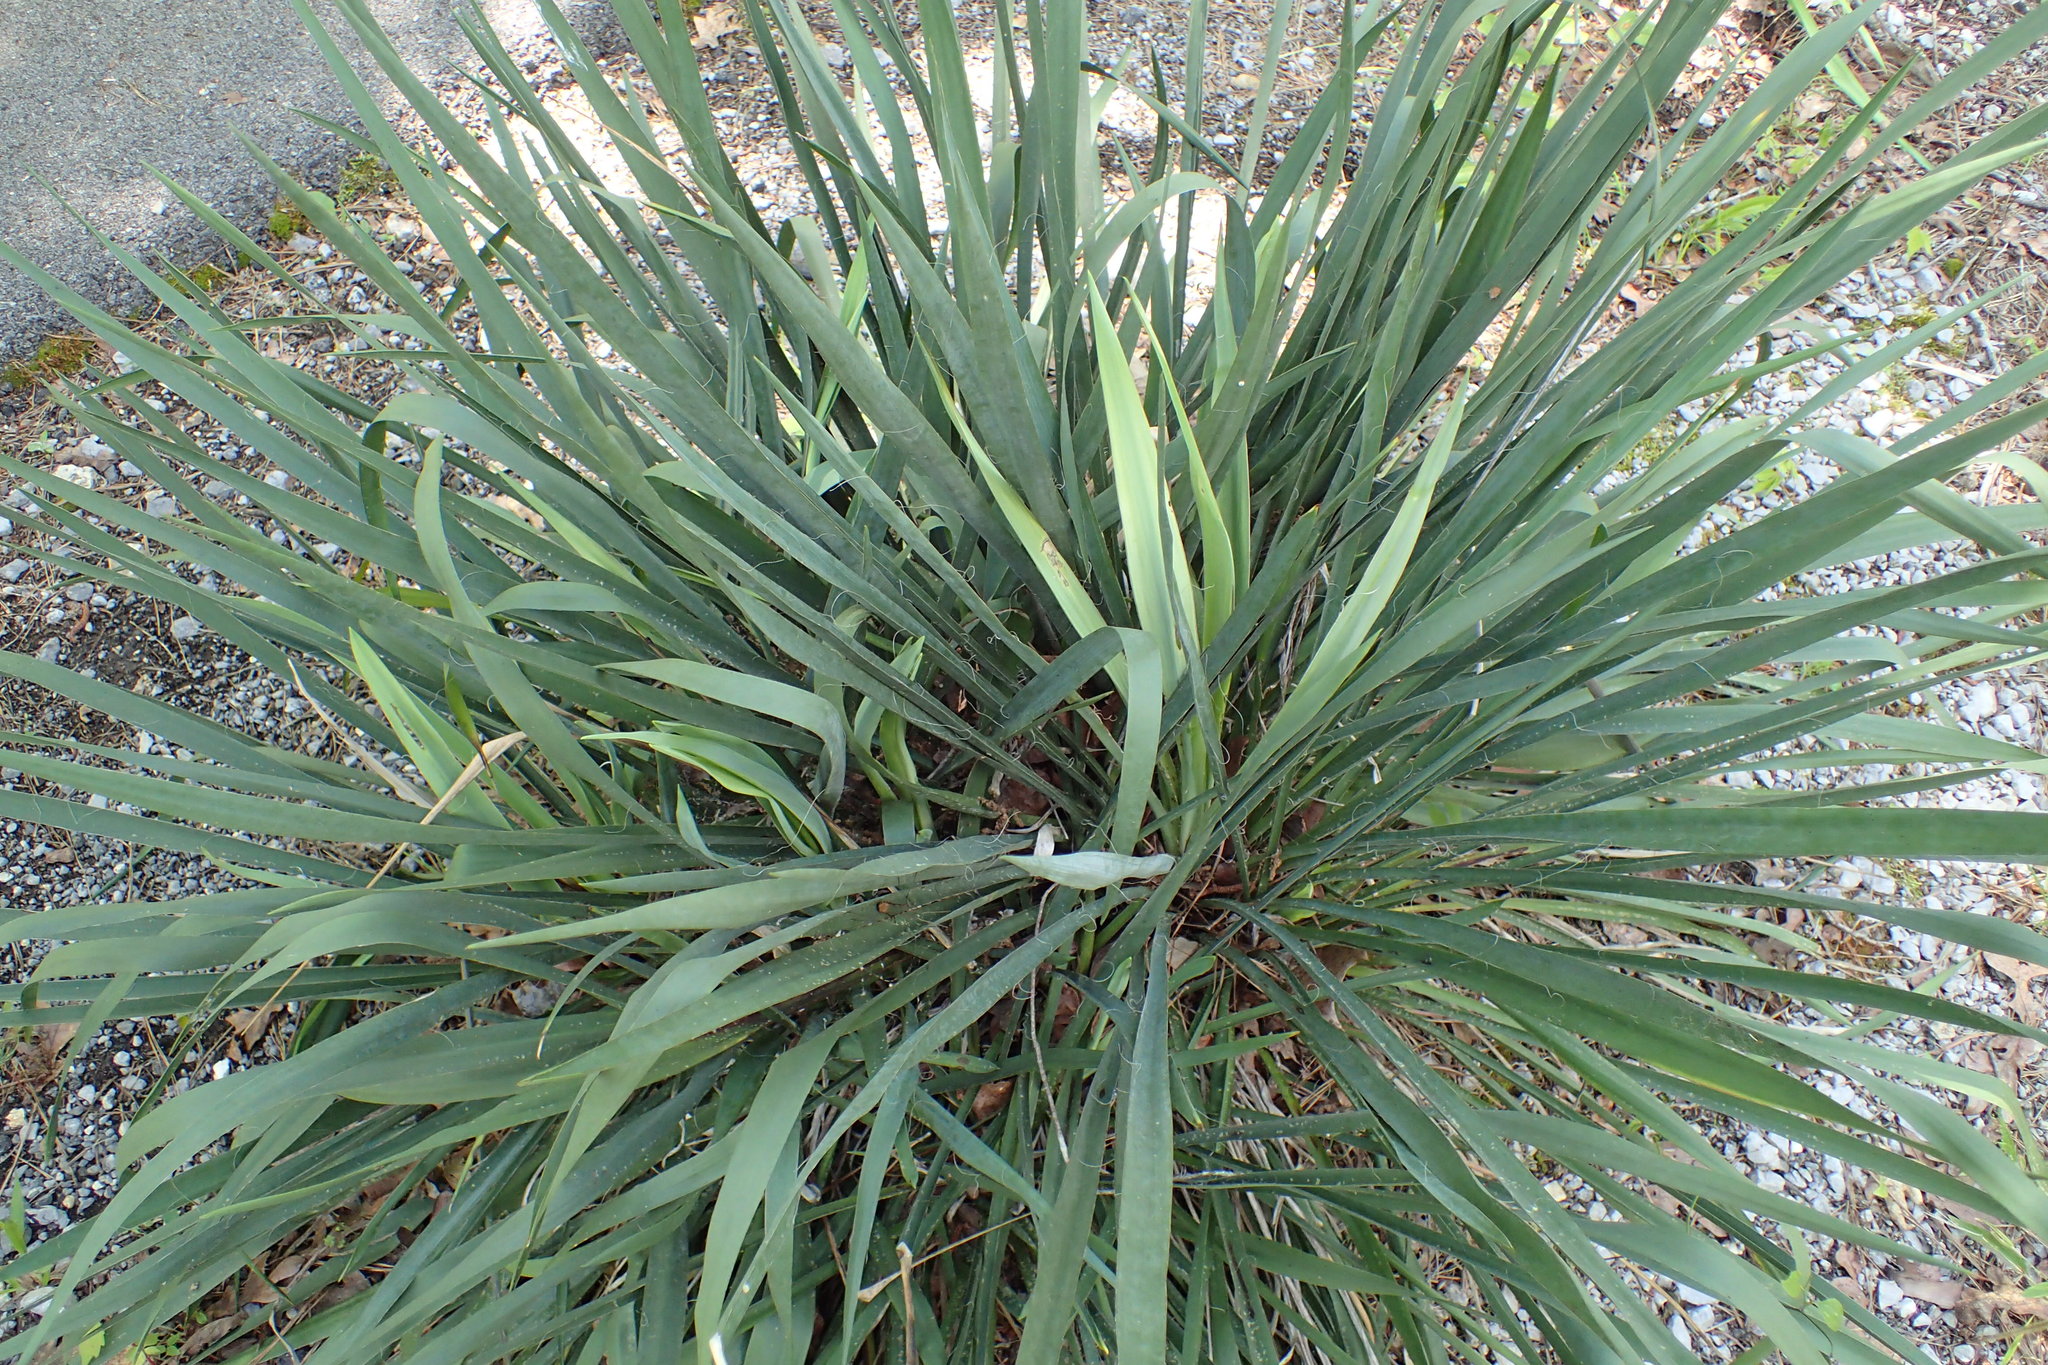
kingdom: Plantae
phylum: Tracheophyta
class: Liliopsida
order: Asparagales
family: Asparagaceae
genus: Yucca
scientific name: Yucca flaccida
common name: Adam's-needle
